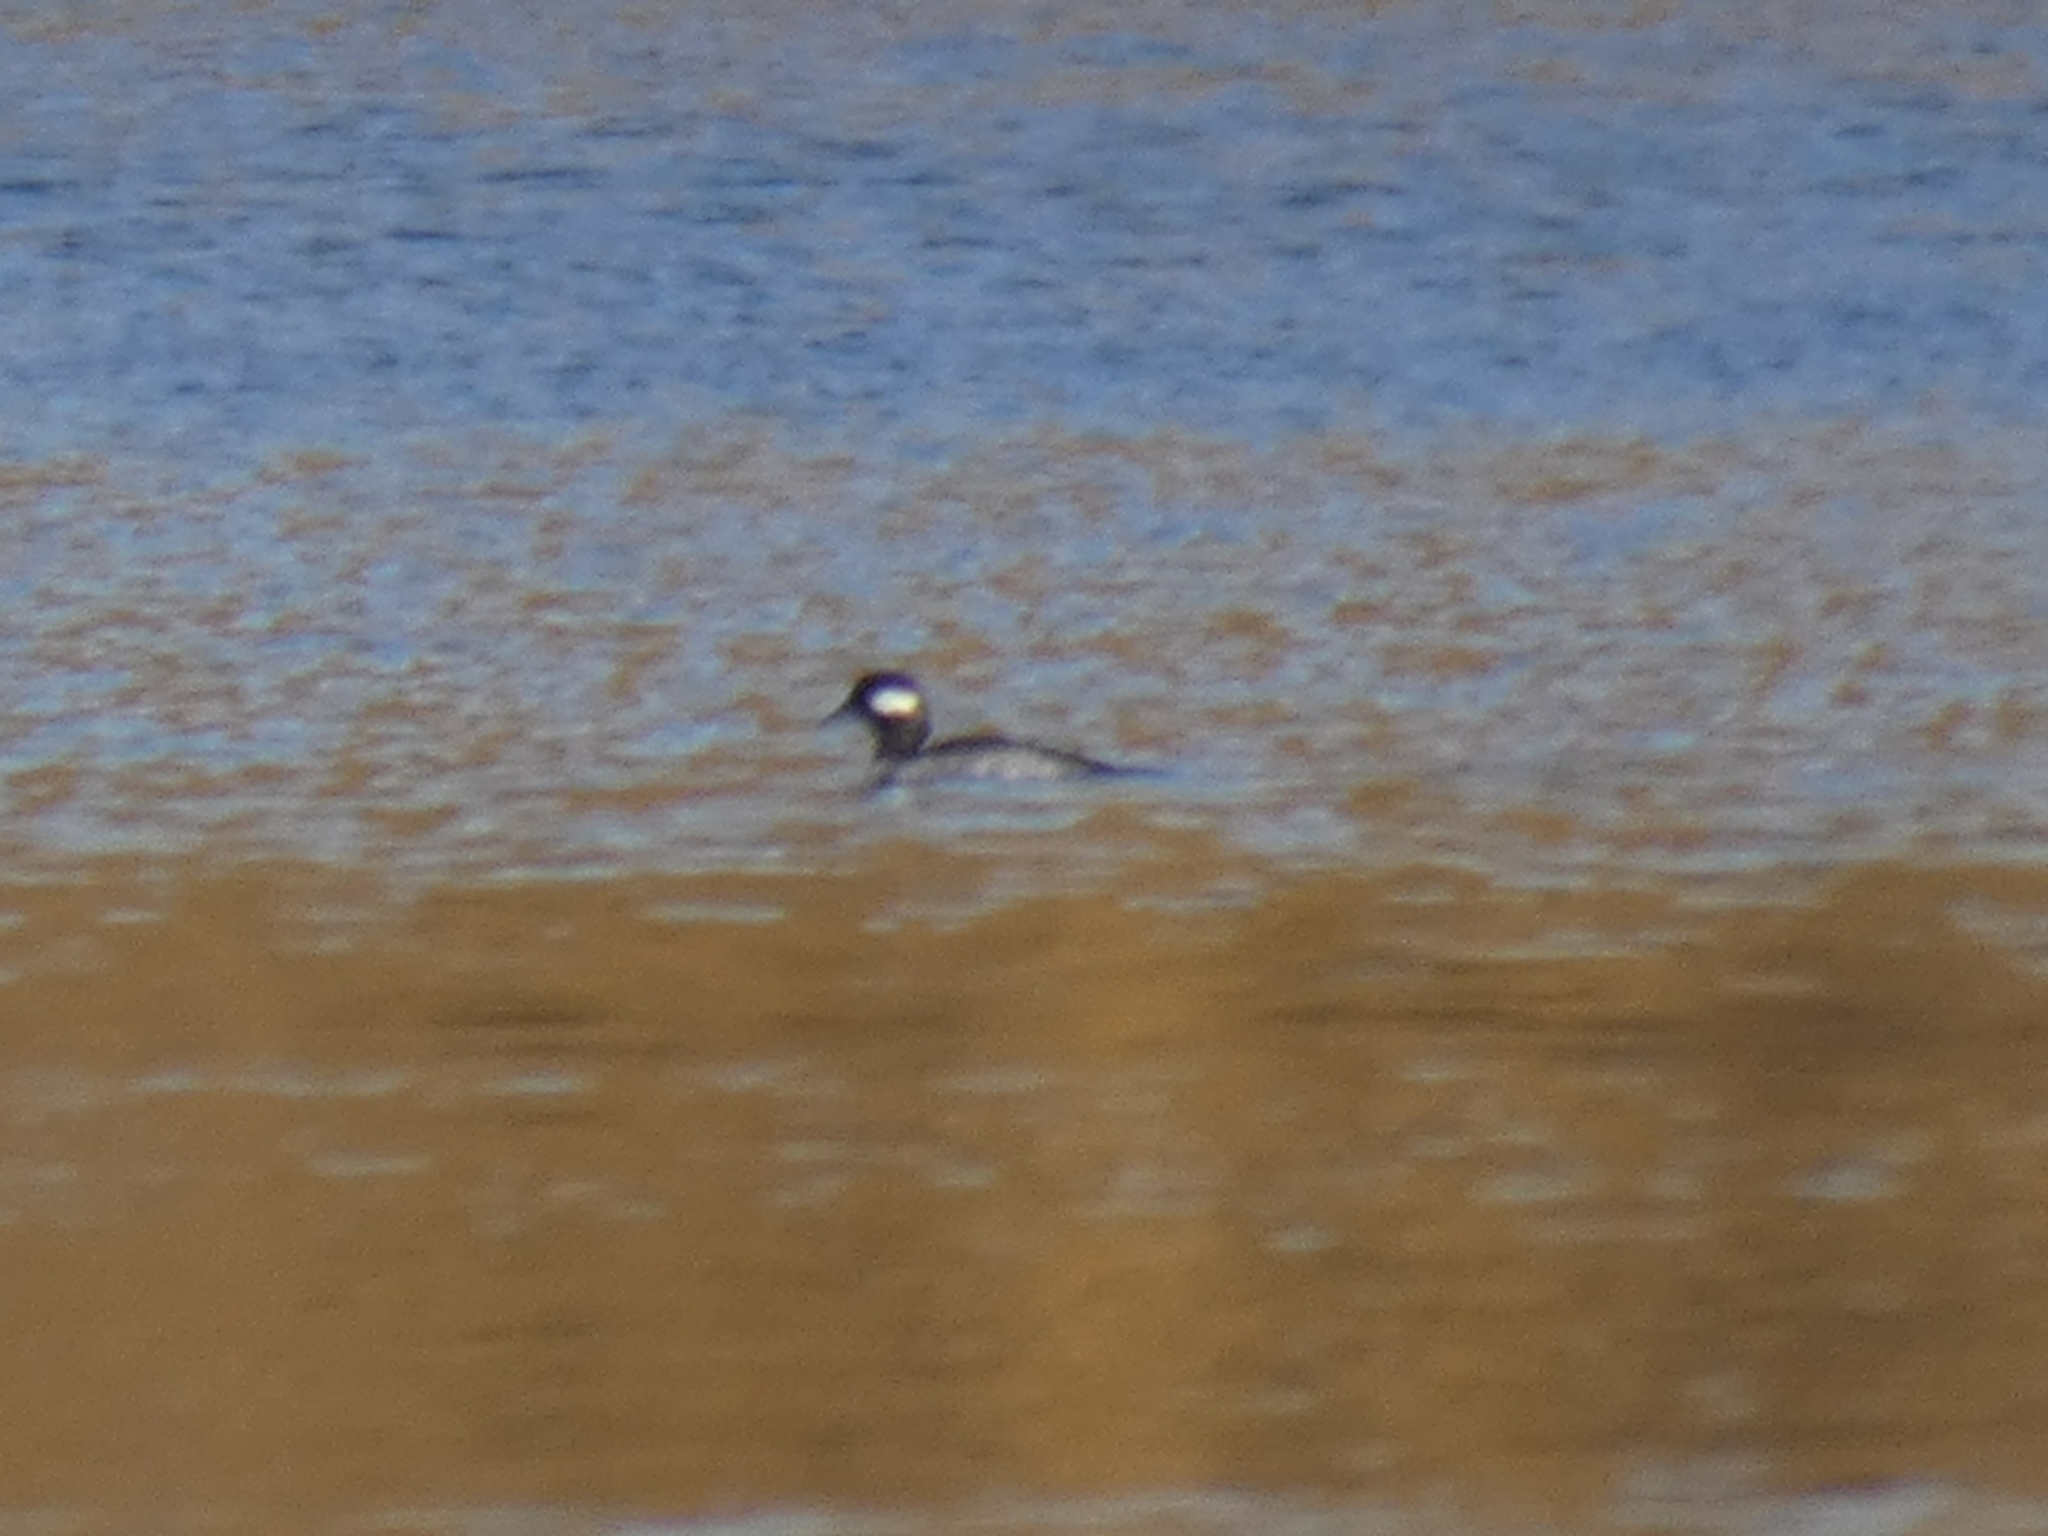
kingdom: Animalia
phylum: Chordata
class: Aves
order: Anseriformes
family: Anatidae
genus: Bucephala
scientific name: Bucephala albeola
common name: Bufflehead
